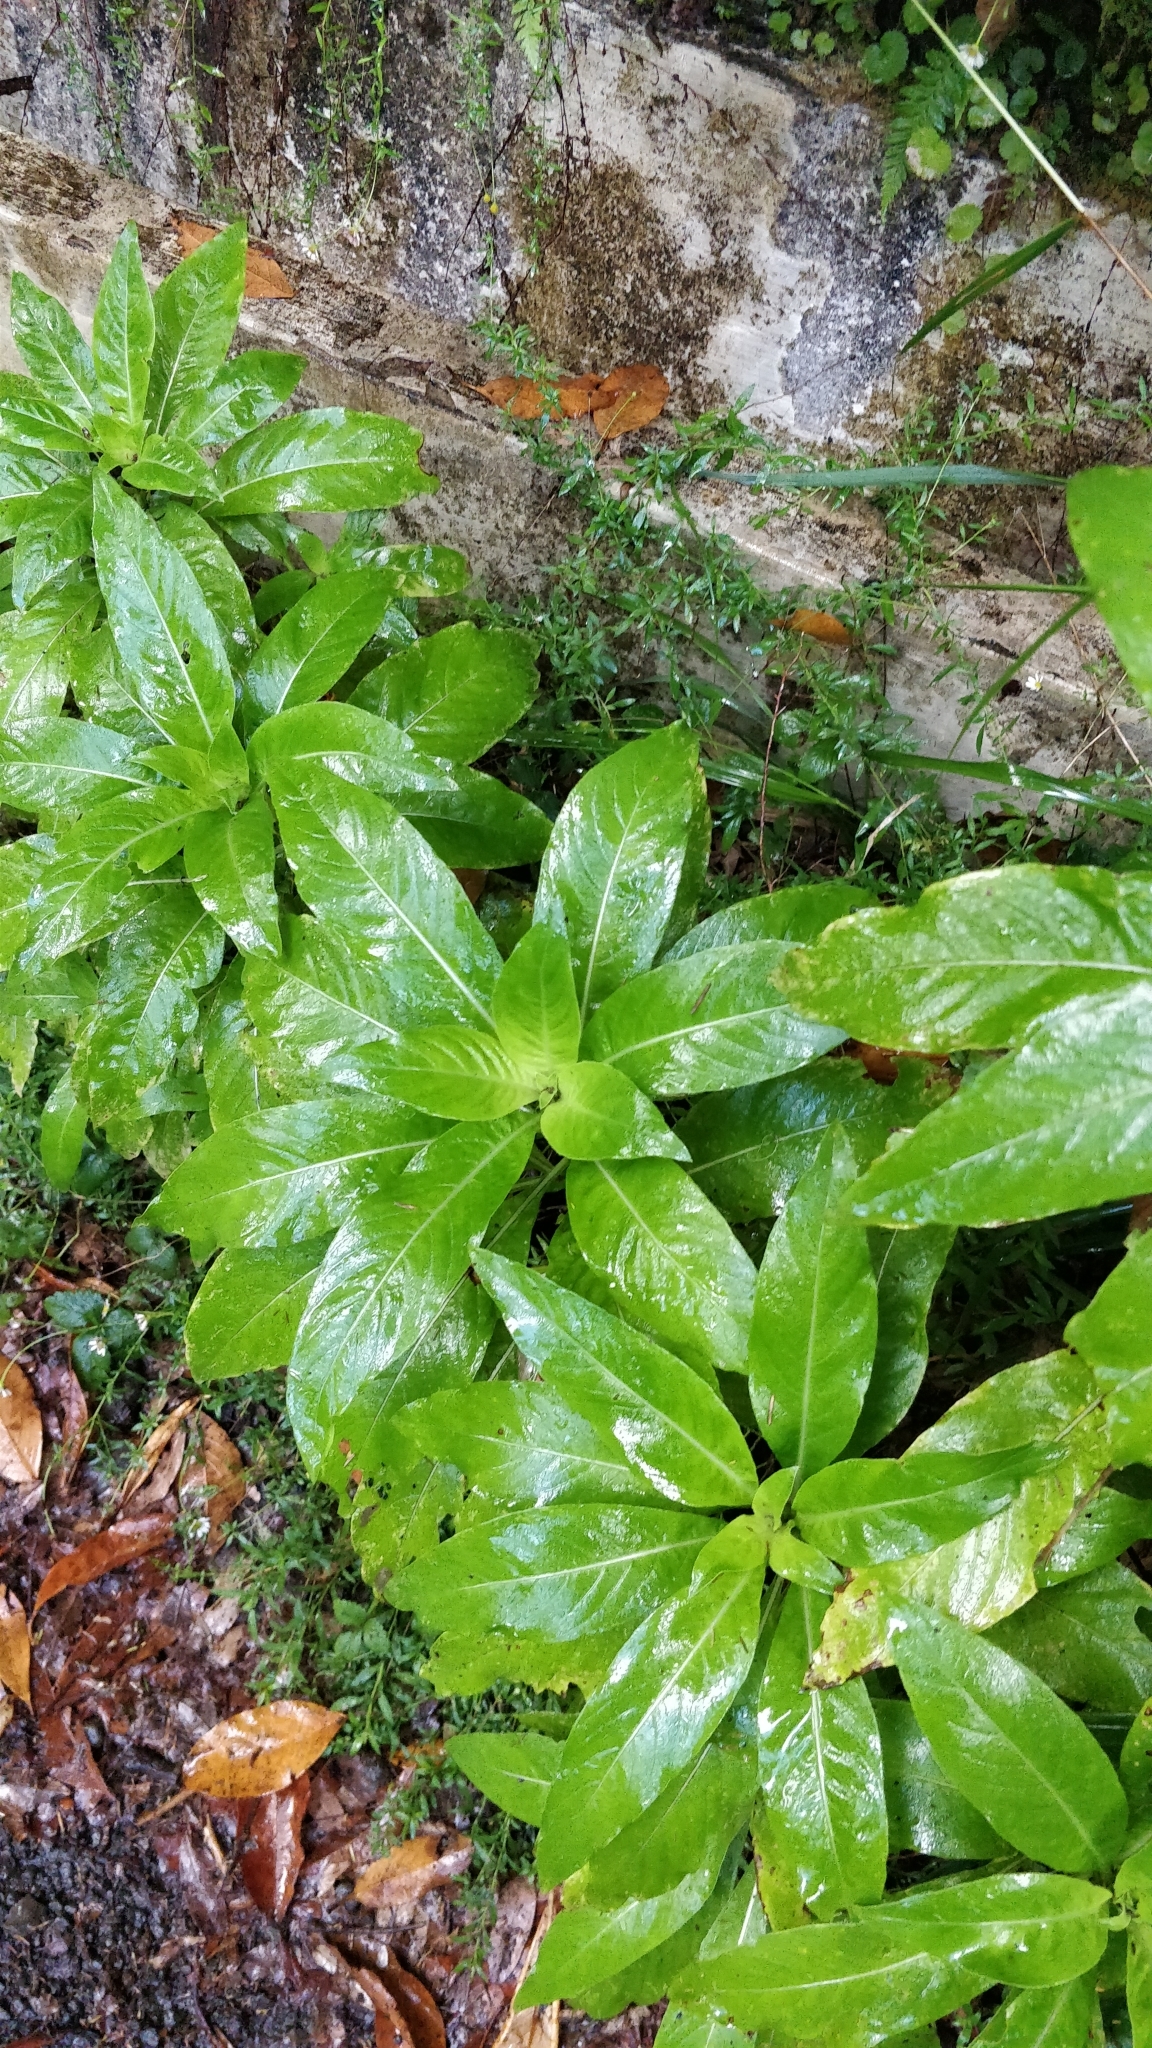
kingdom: Plantae
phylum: Tracheophyta
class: Magnoliopsida
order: Gentianales
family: Rubiaceae
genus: Phyllis
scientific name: Phyllis nobla
